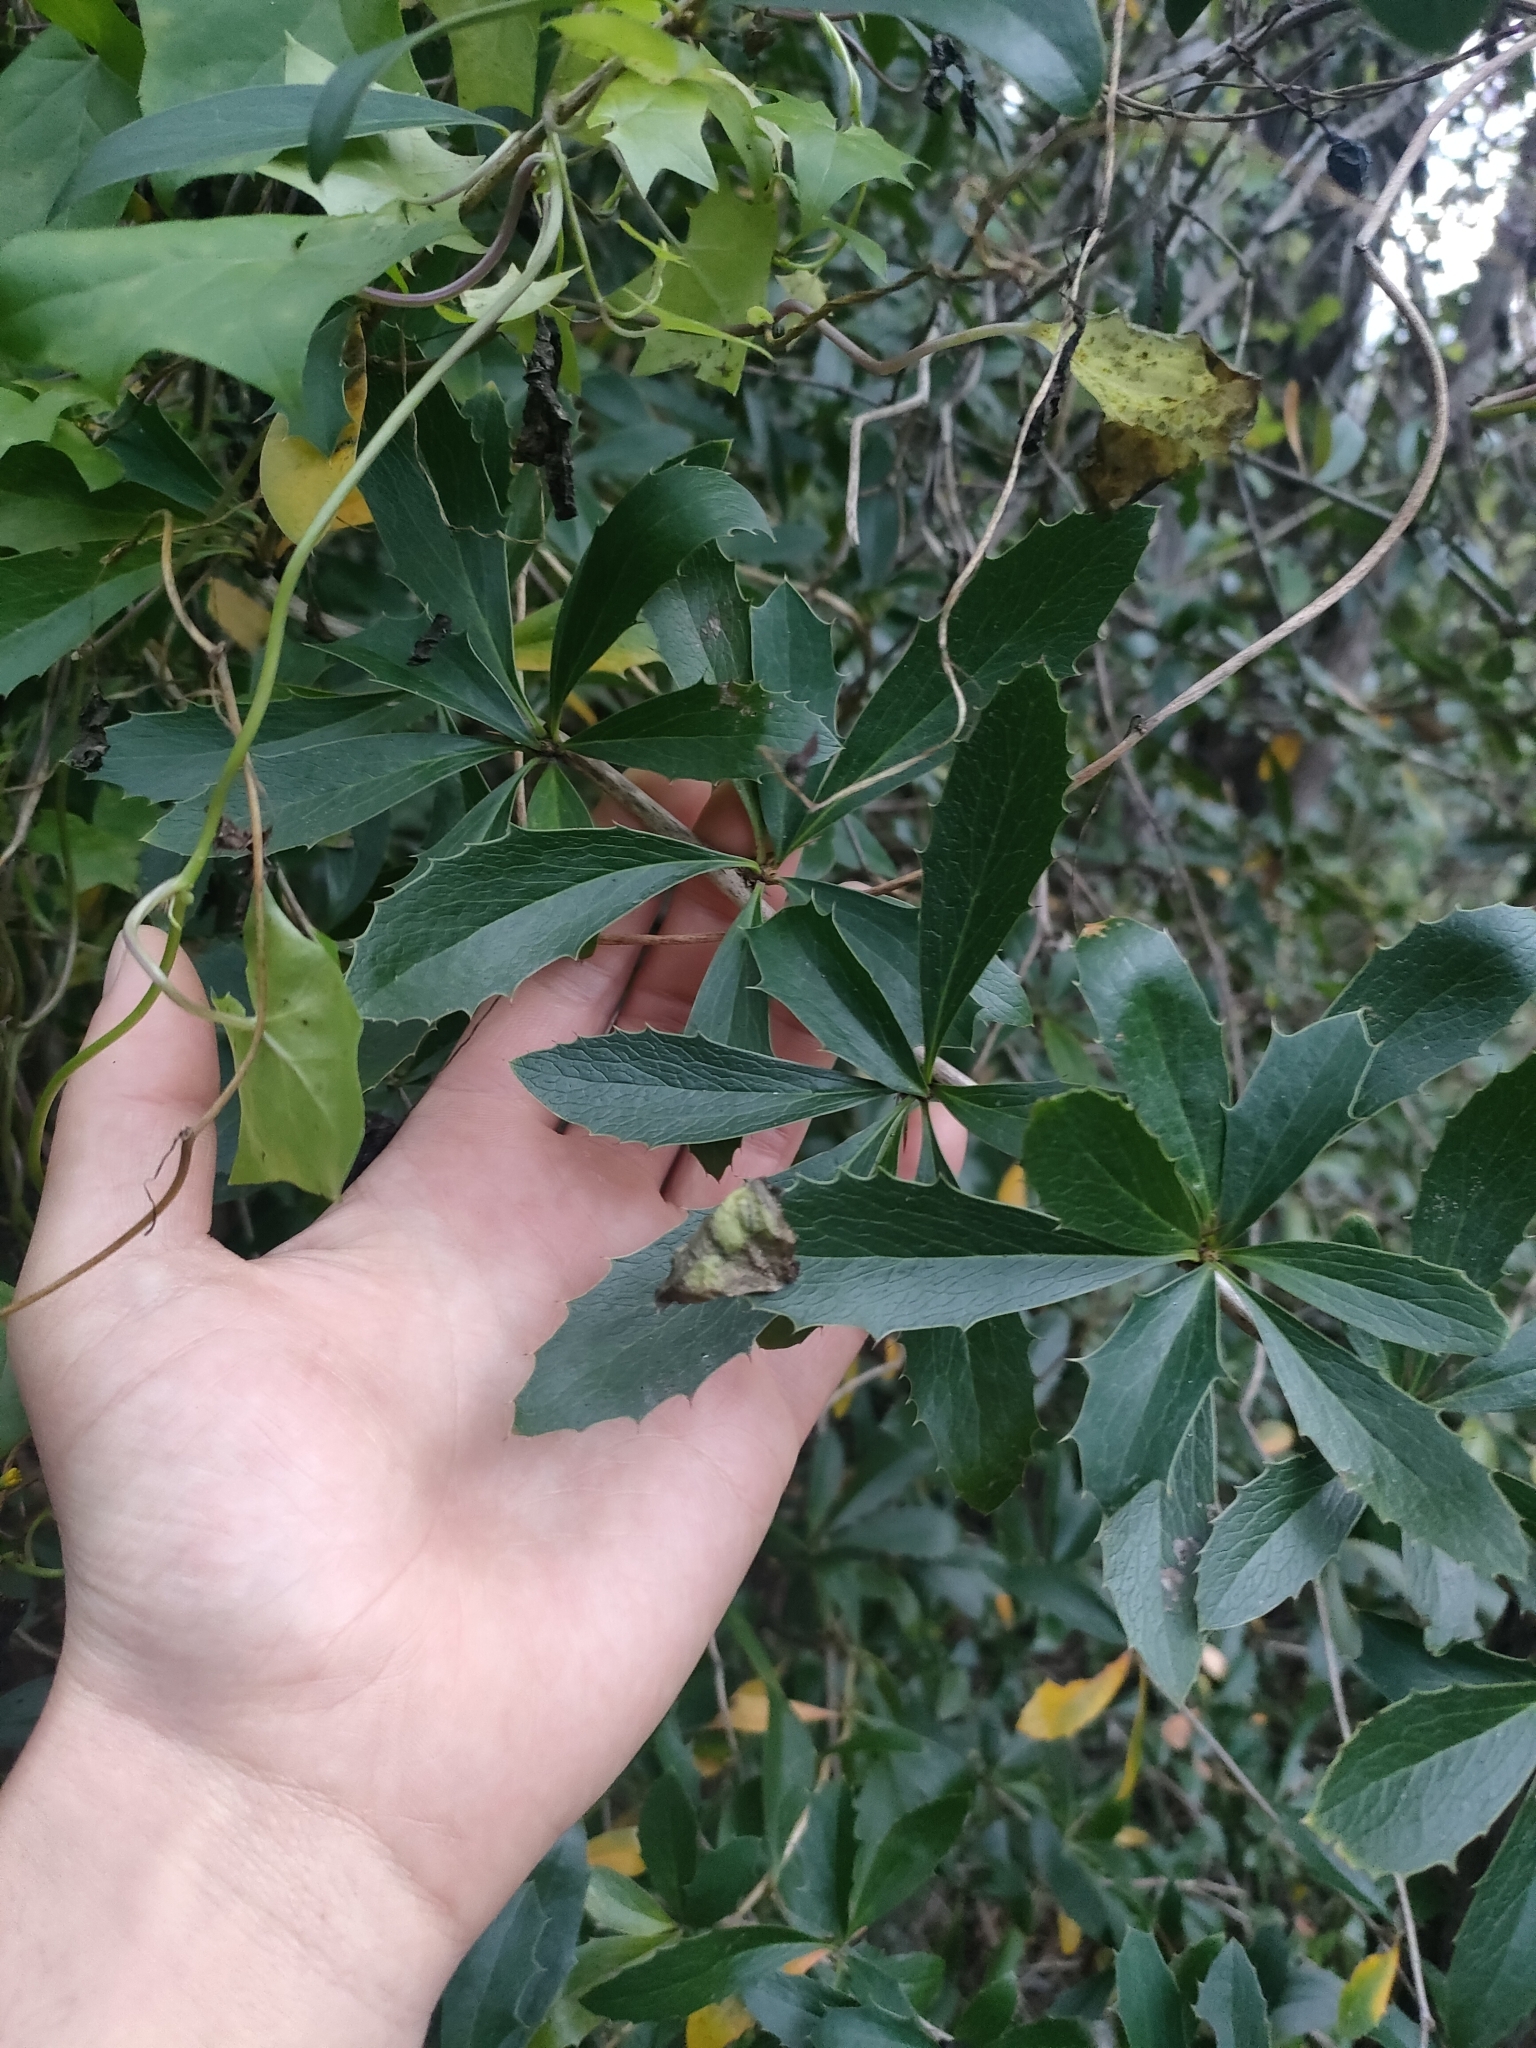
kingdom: Plantae
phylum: Tracheophyta
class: Magnoliopsida
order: Ranunculales
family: Berberidaceae
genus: Berberis
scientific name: Berberis glaucocarpa
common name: Great barberry
